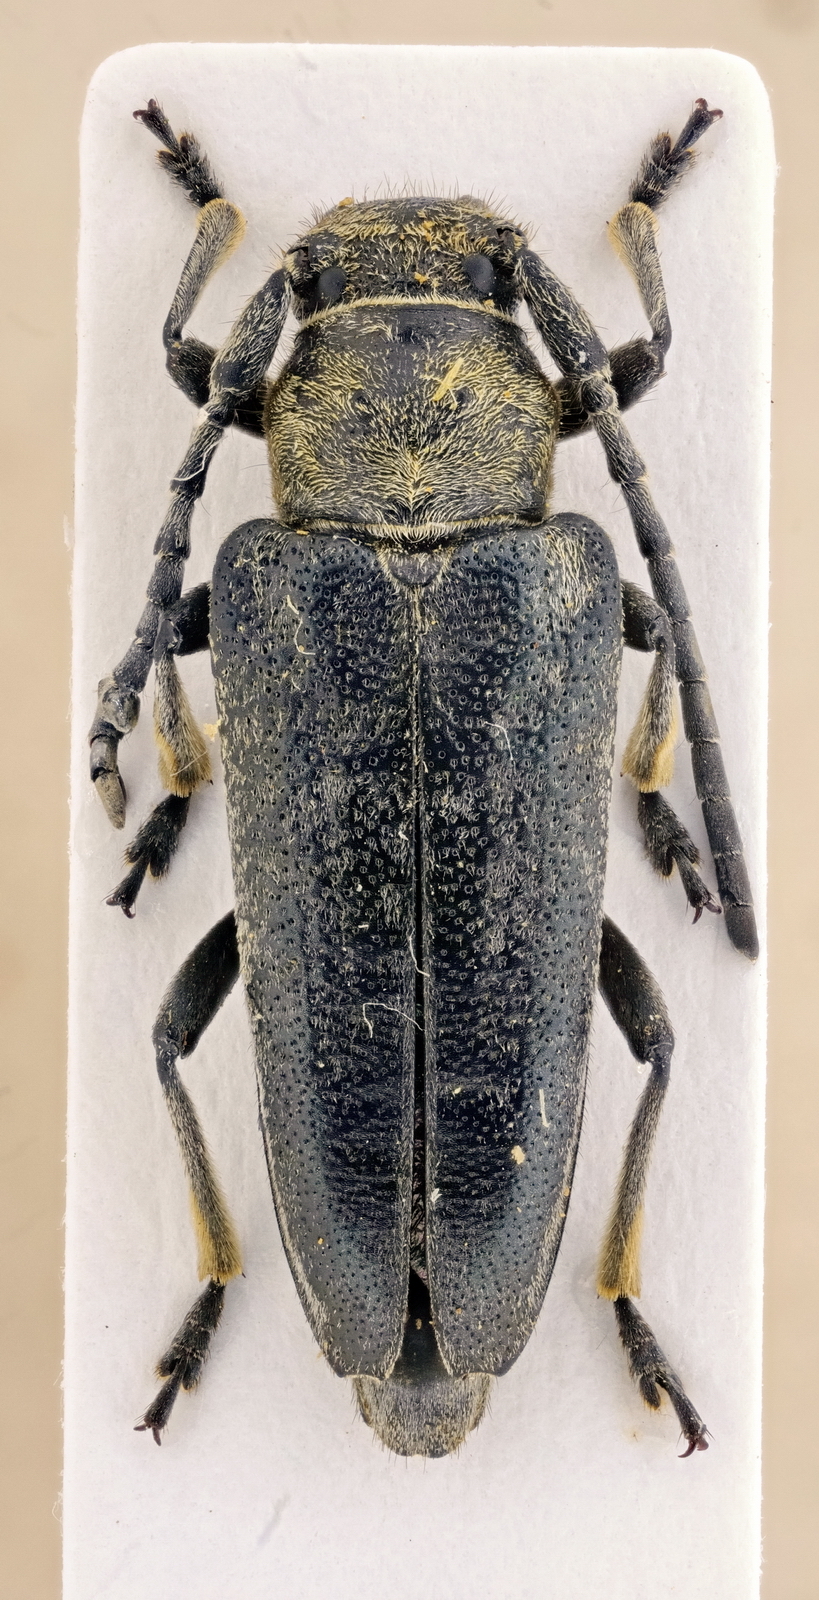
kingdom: Animalia
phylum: Arthropoda
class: Insecta
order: Coleoptera
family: Cerambycidae
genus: Phytoecia
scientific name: Phytoecia antoniae
